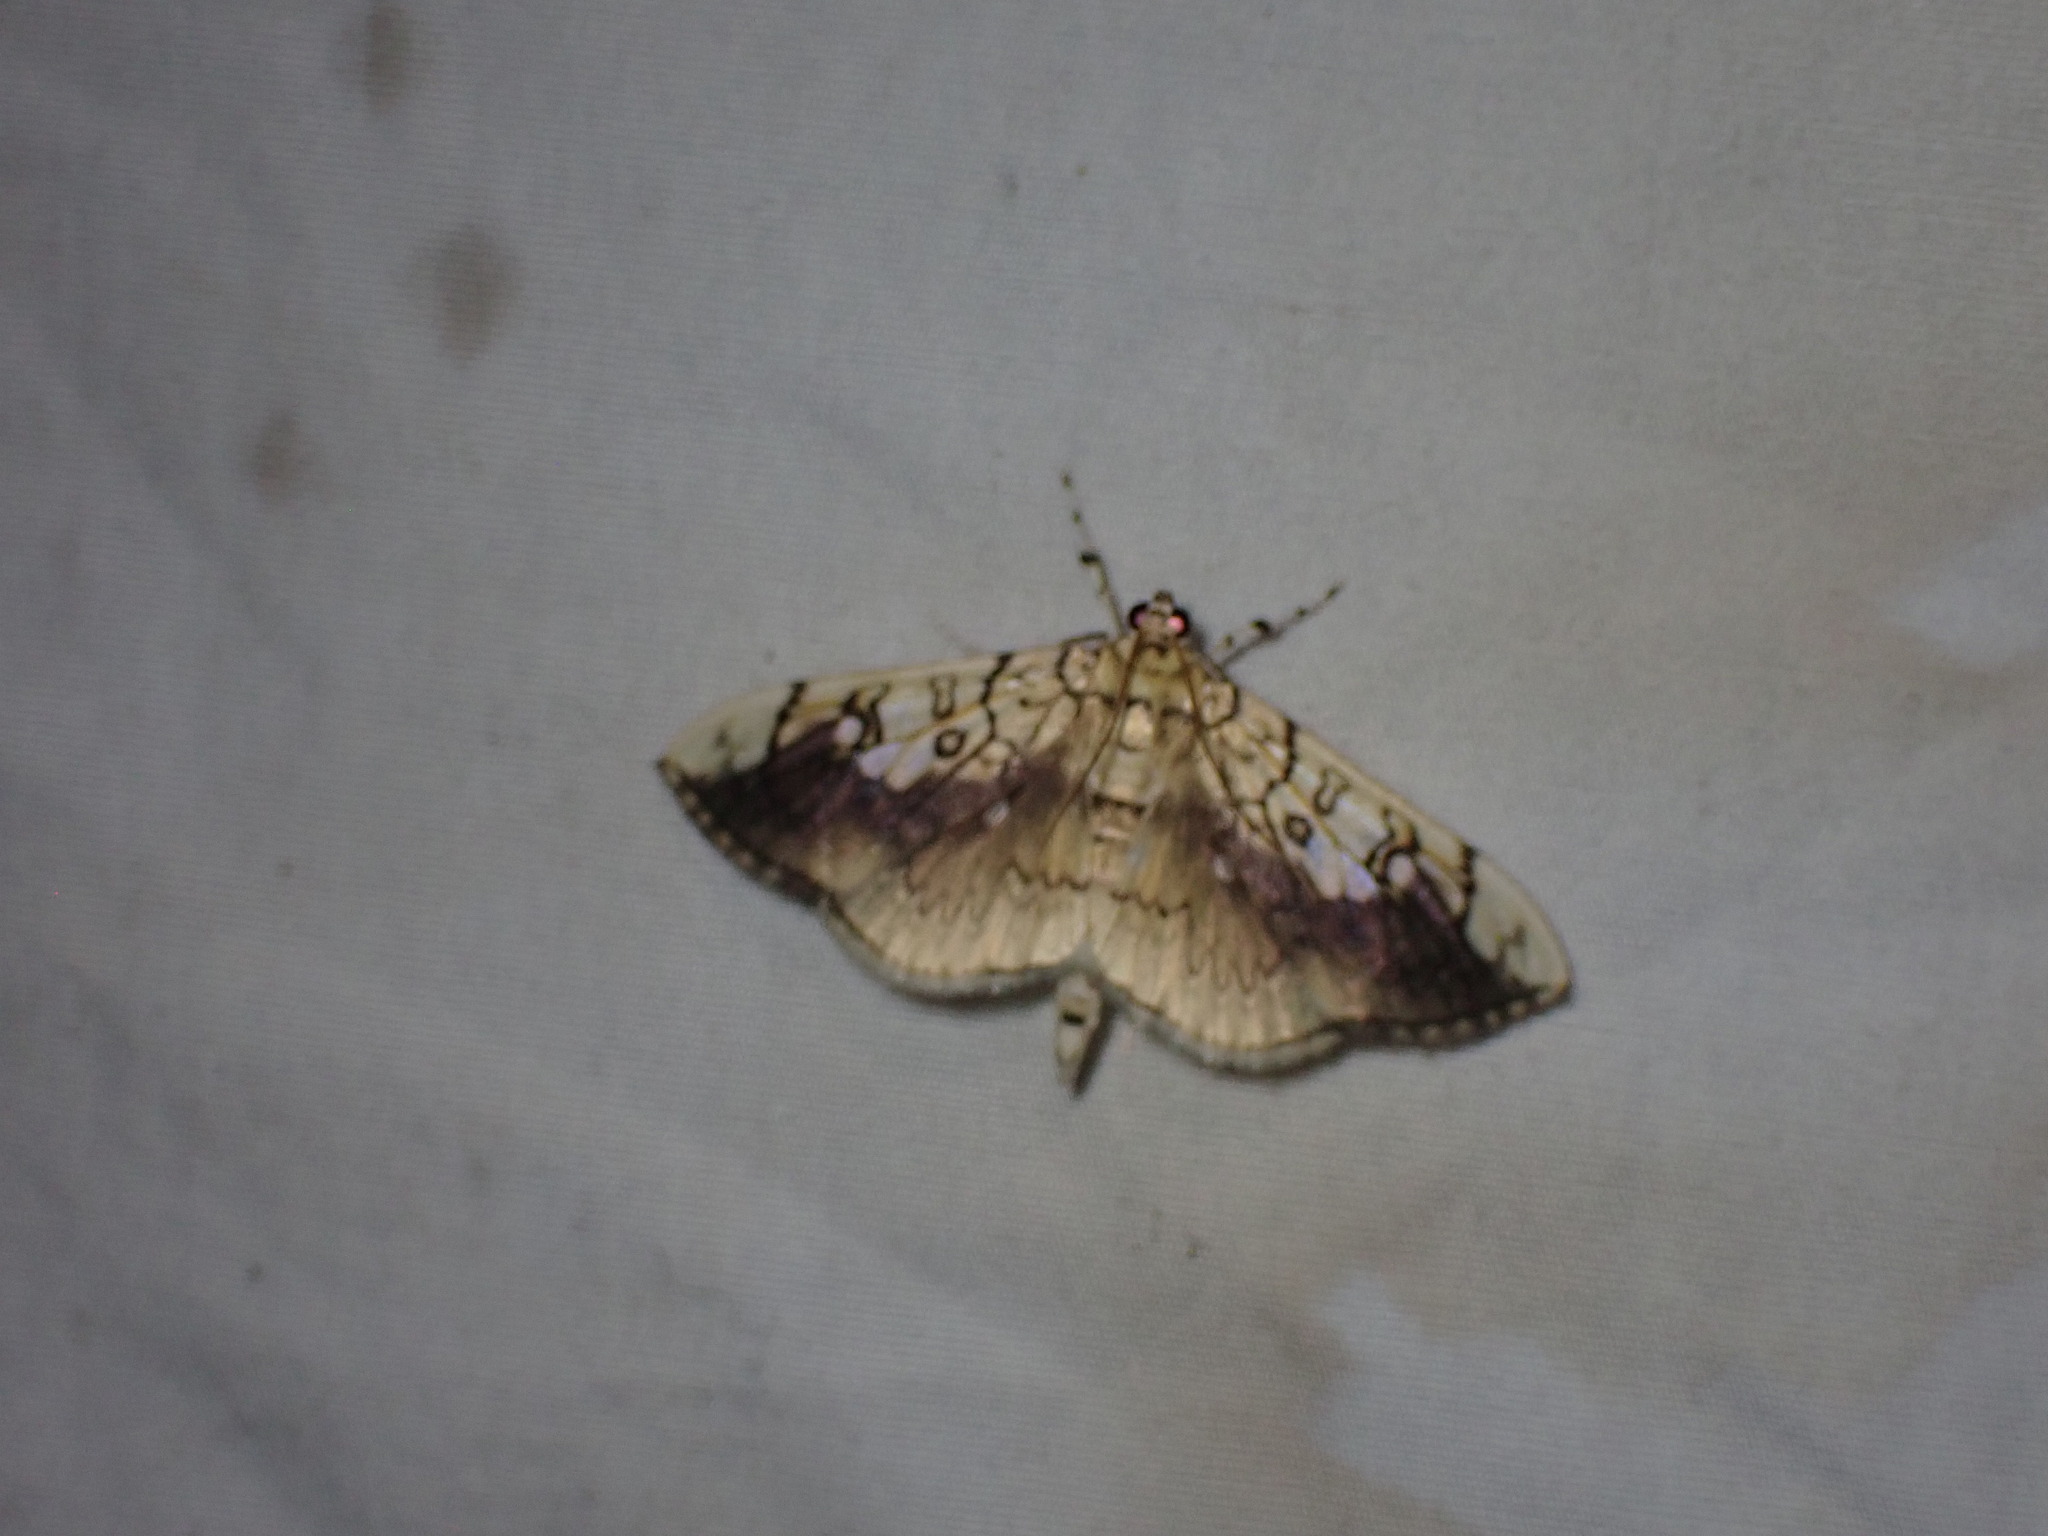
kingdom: Animalia
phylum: Arthropoda
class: Insecta
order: Lepidoptera
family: Crambidae
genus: Pantographa
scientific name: Pantographa limata
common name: Basswood leafroller moth
